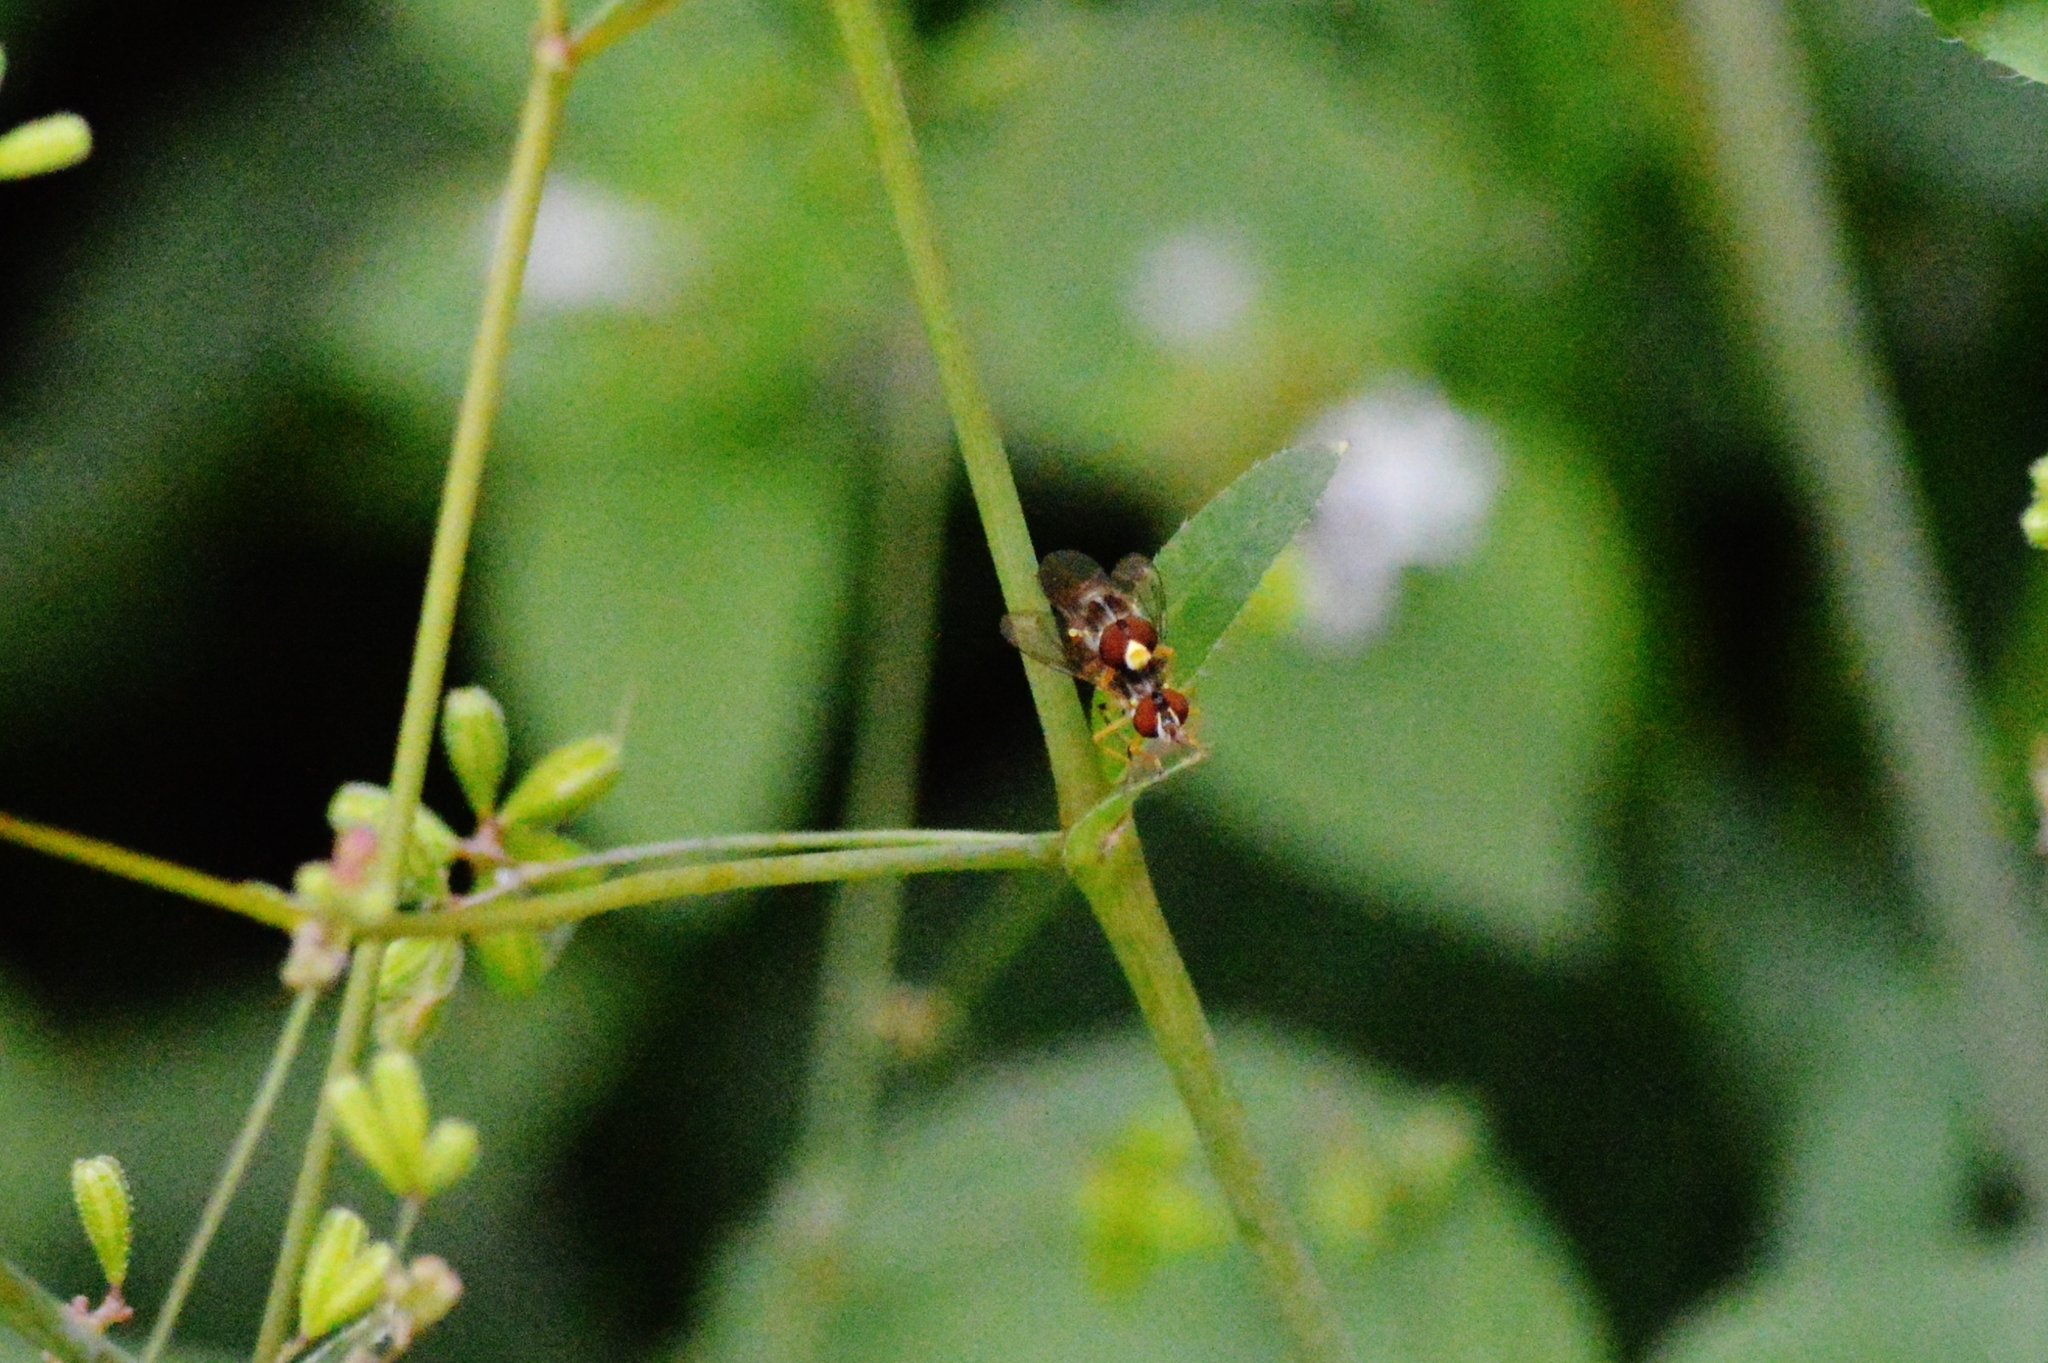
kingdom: Animalia
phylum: Arthropoda
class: Insecta
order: Diptera
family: Syrphidae
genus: Toxomerus
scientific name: Toxomerus
